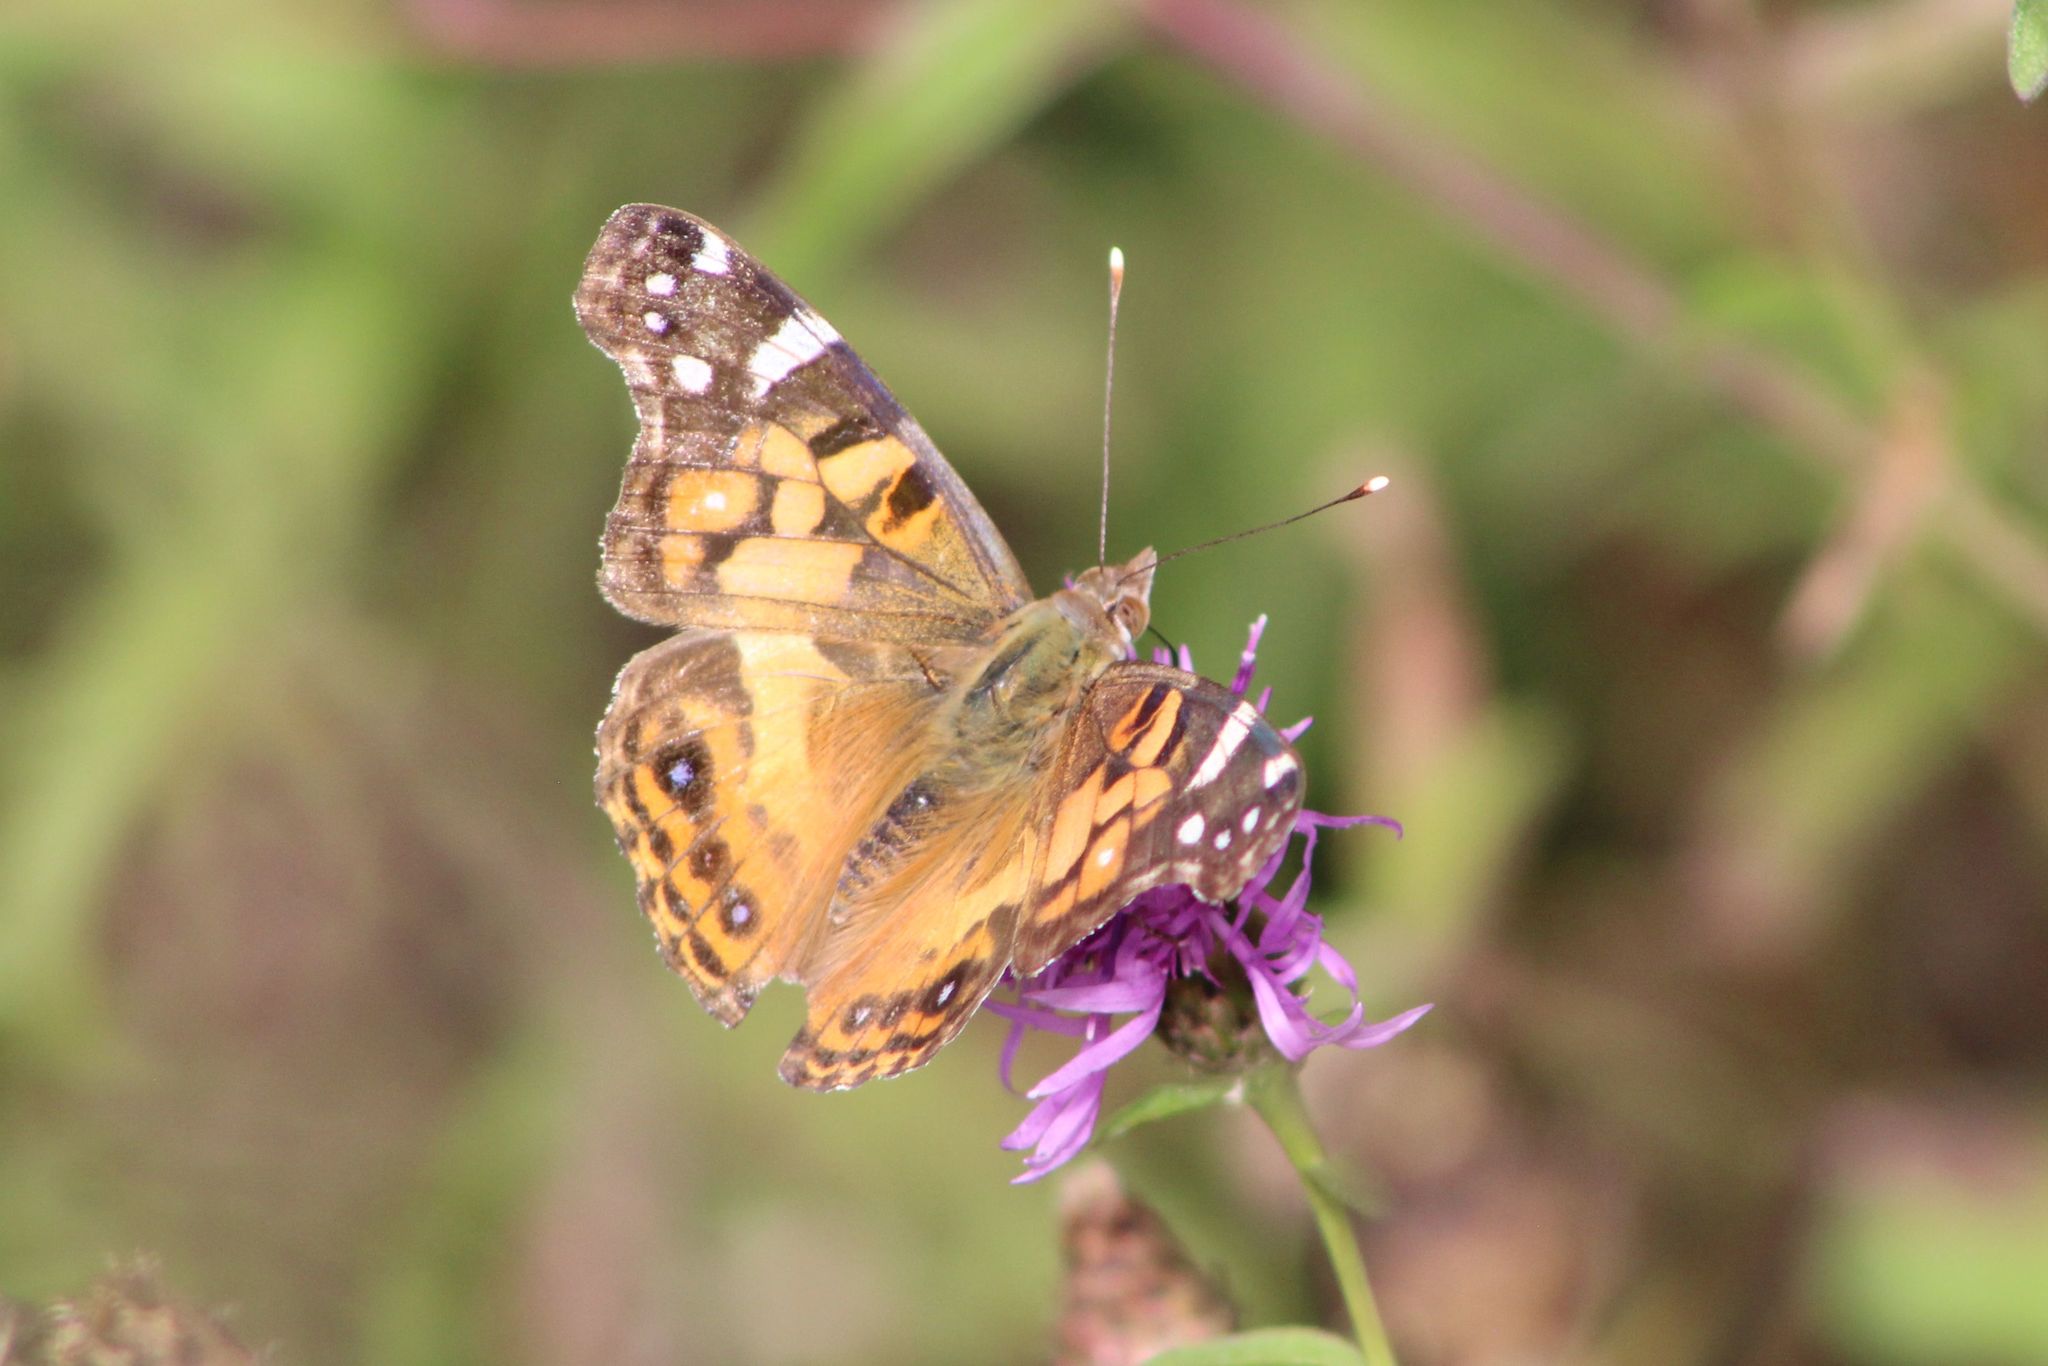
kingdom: Animalia
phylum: Arthropoda
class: Insecta
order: Lepidoptera
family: Nymphalidae
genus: Vanessa
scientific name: Vanessa virginiensis
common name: American lady
